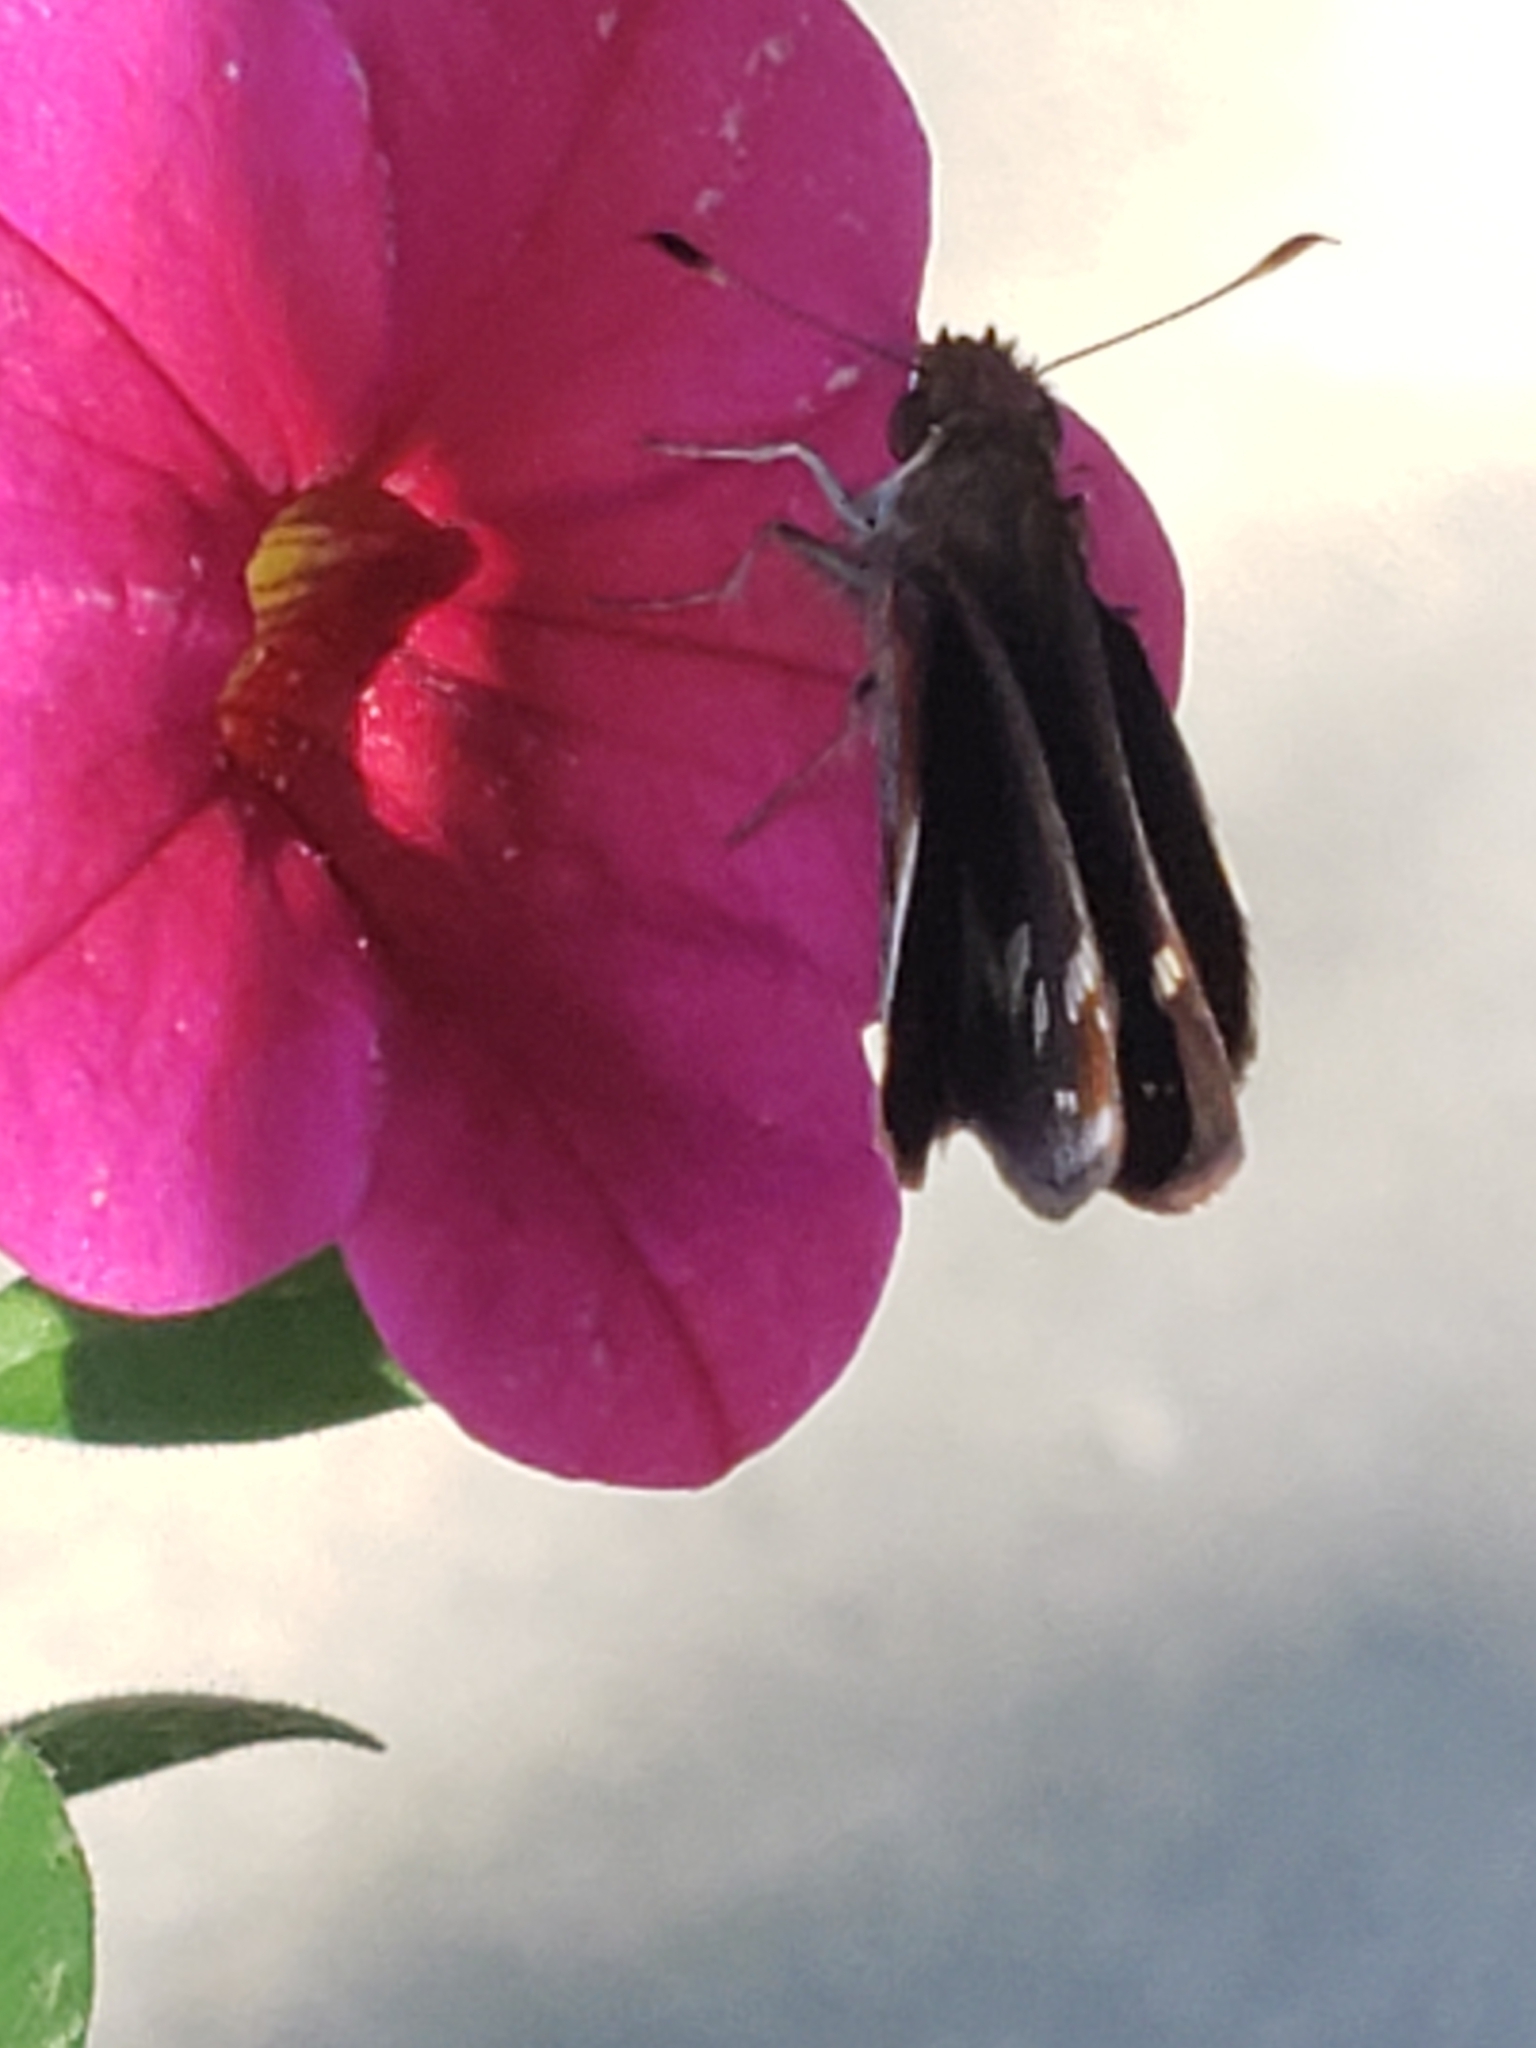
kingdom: Animalia
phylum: Arthropoda
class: Insecta
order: Lepidoptera
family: Hesperiidae
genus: Lon
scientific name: Lon zabulon
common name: Zabulon skipper
